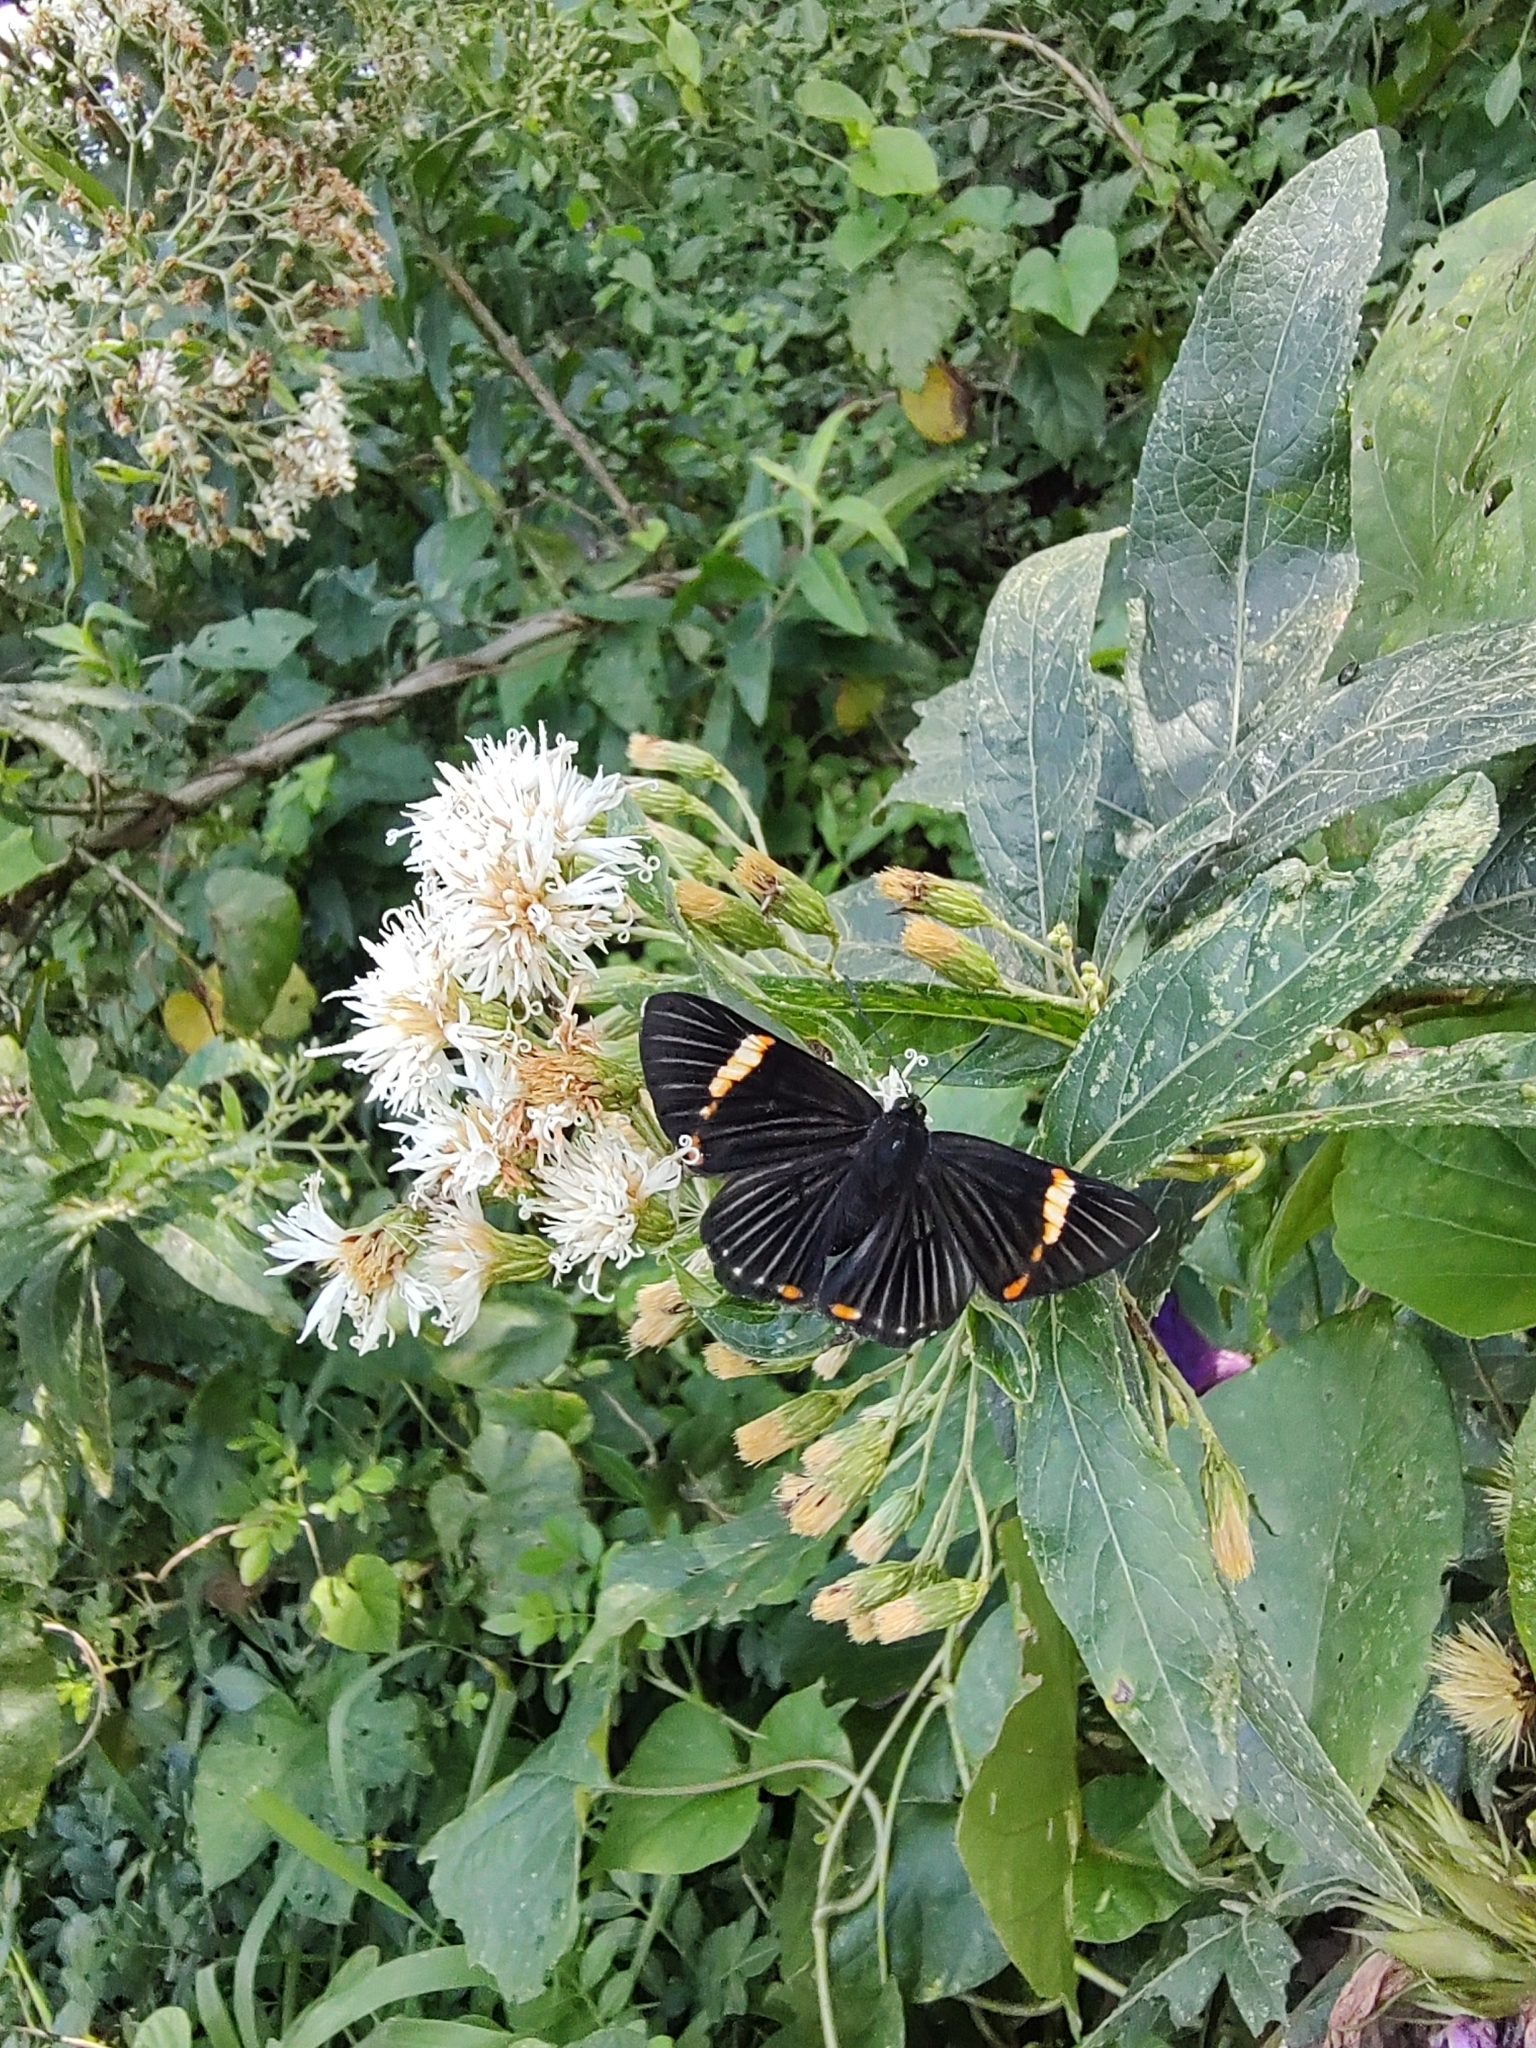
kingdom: Animalia
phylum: Arthropoda
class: Insecta
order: Lepidoptera
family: Riodinidae
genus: Riodina
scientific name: Riodina lycisca
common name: Lycisca metalmark
